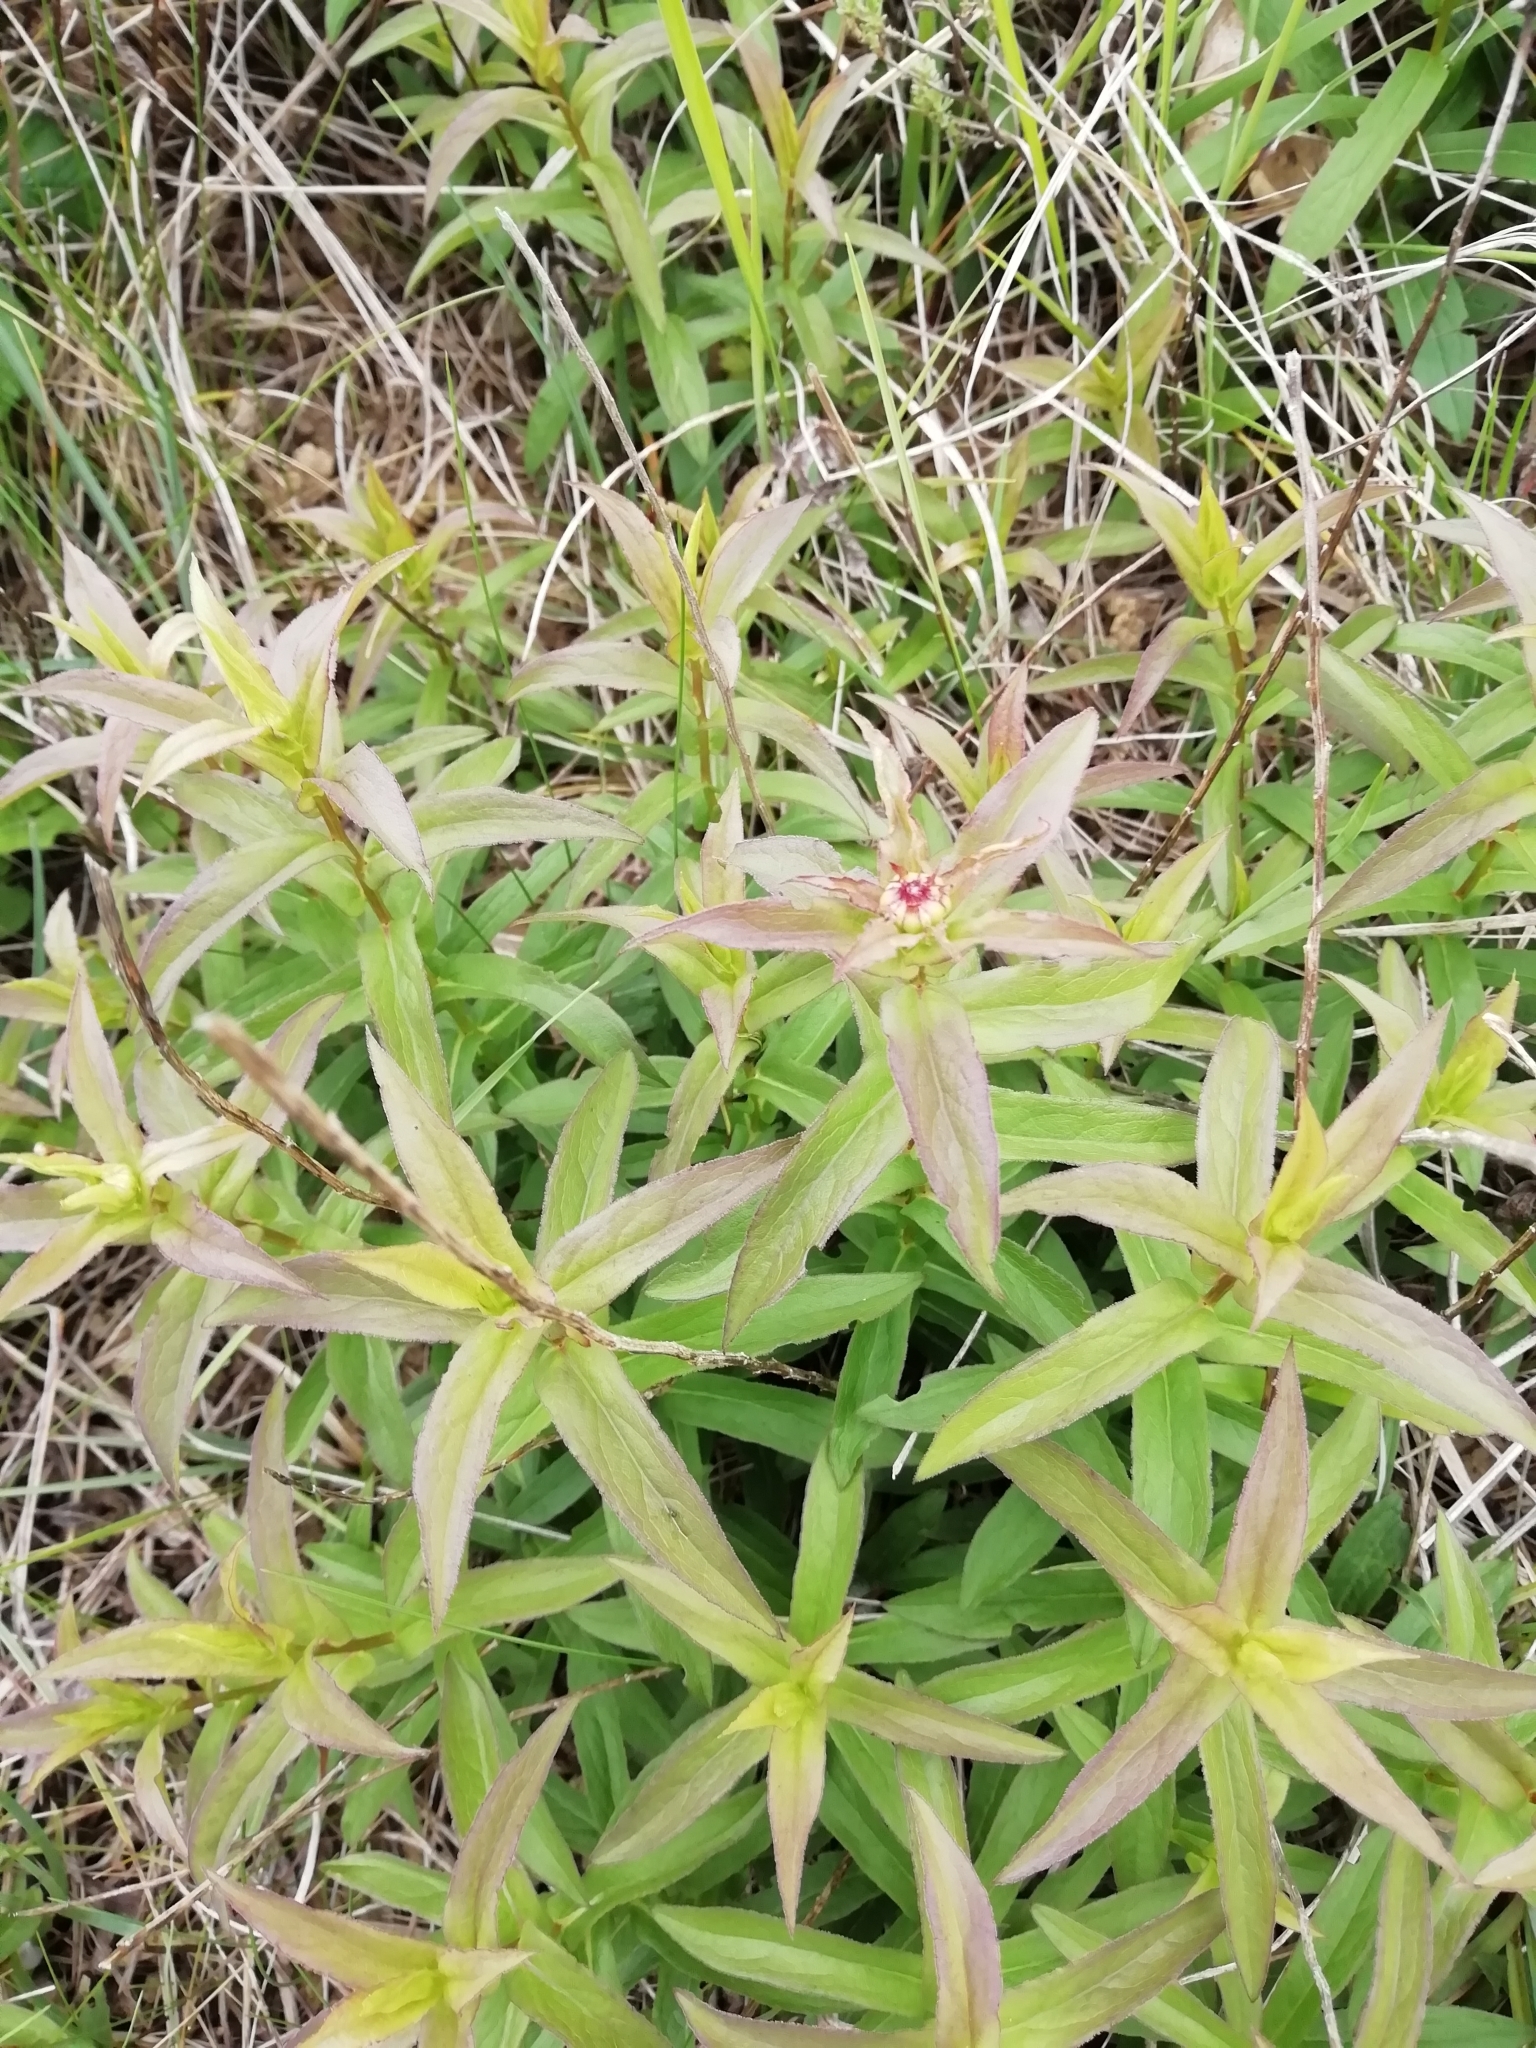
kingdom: Plantae
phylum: Tracheophyta
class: Magnoliopsida
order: Asterales
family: Asteraceae
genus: Pentanema
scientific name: Pentanema salicinum
